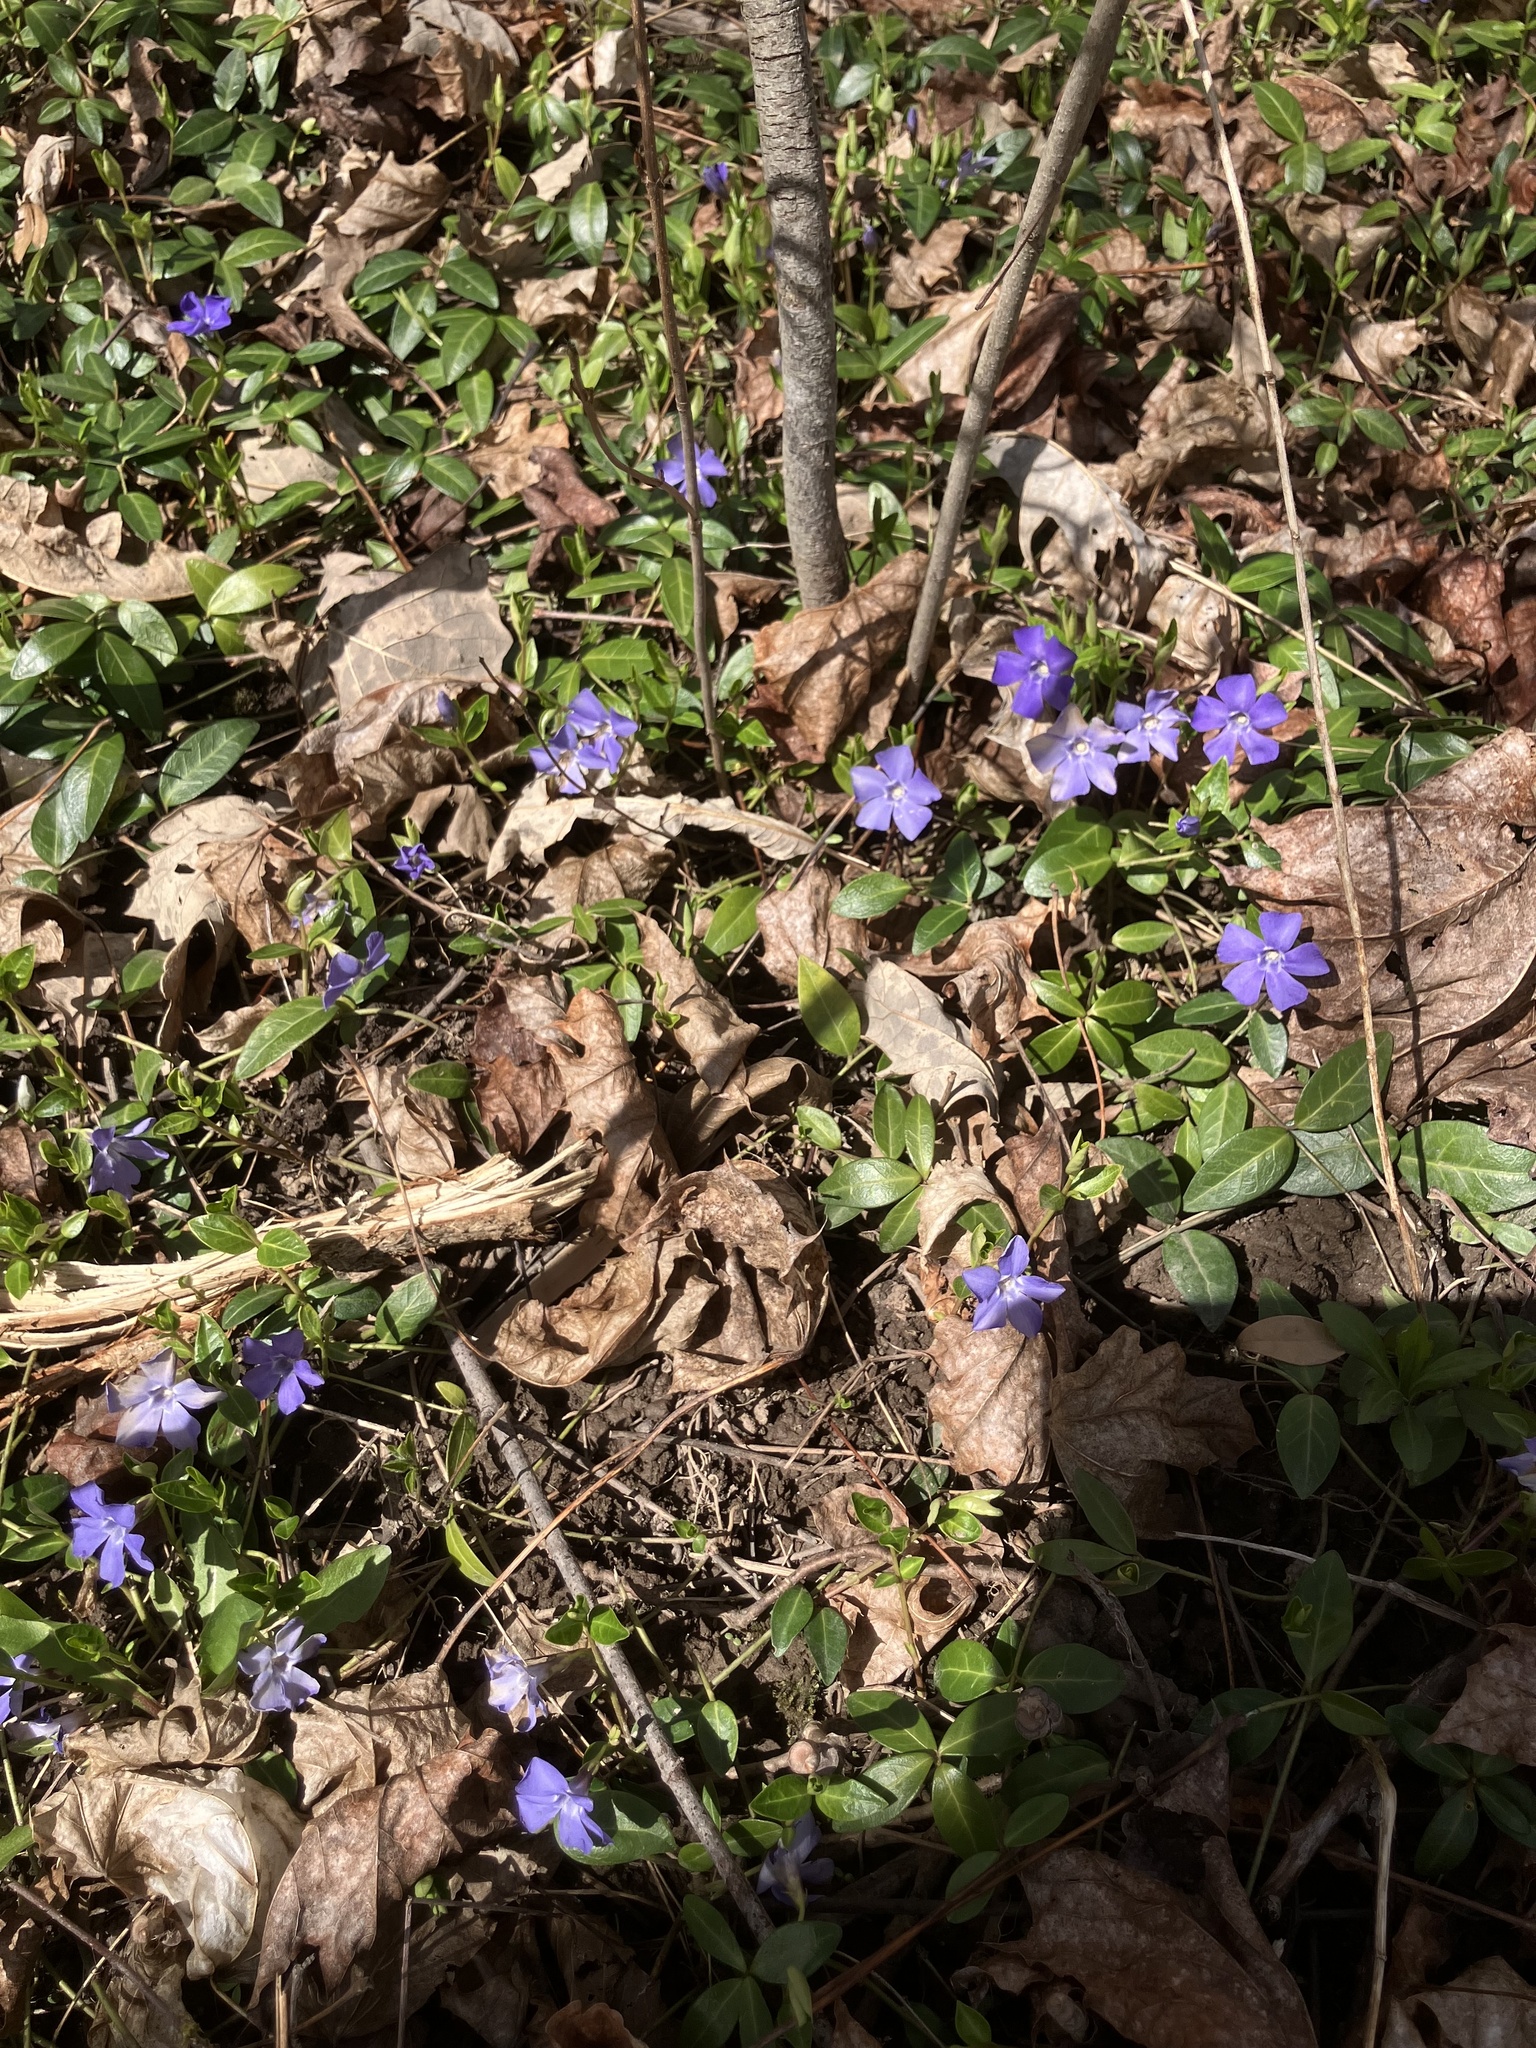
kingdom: Plantae
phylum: Tracheophyta
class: Magnoliopsida
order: Gentianales
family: Apocynaceae
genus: Vinca
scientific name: Vinca minor
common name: Lesser periwinkle
